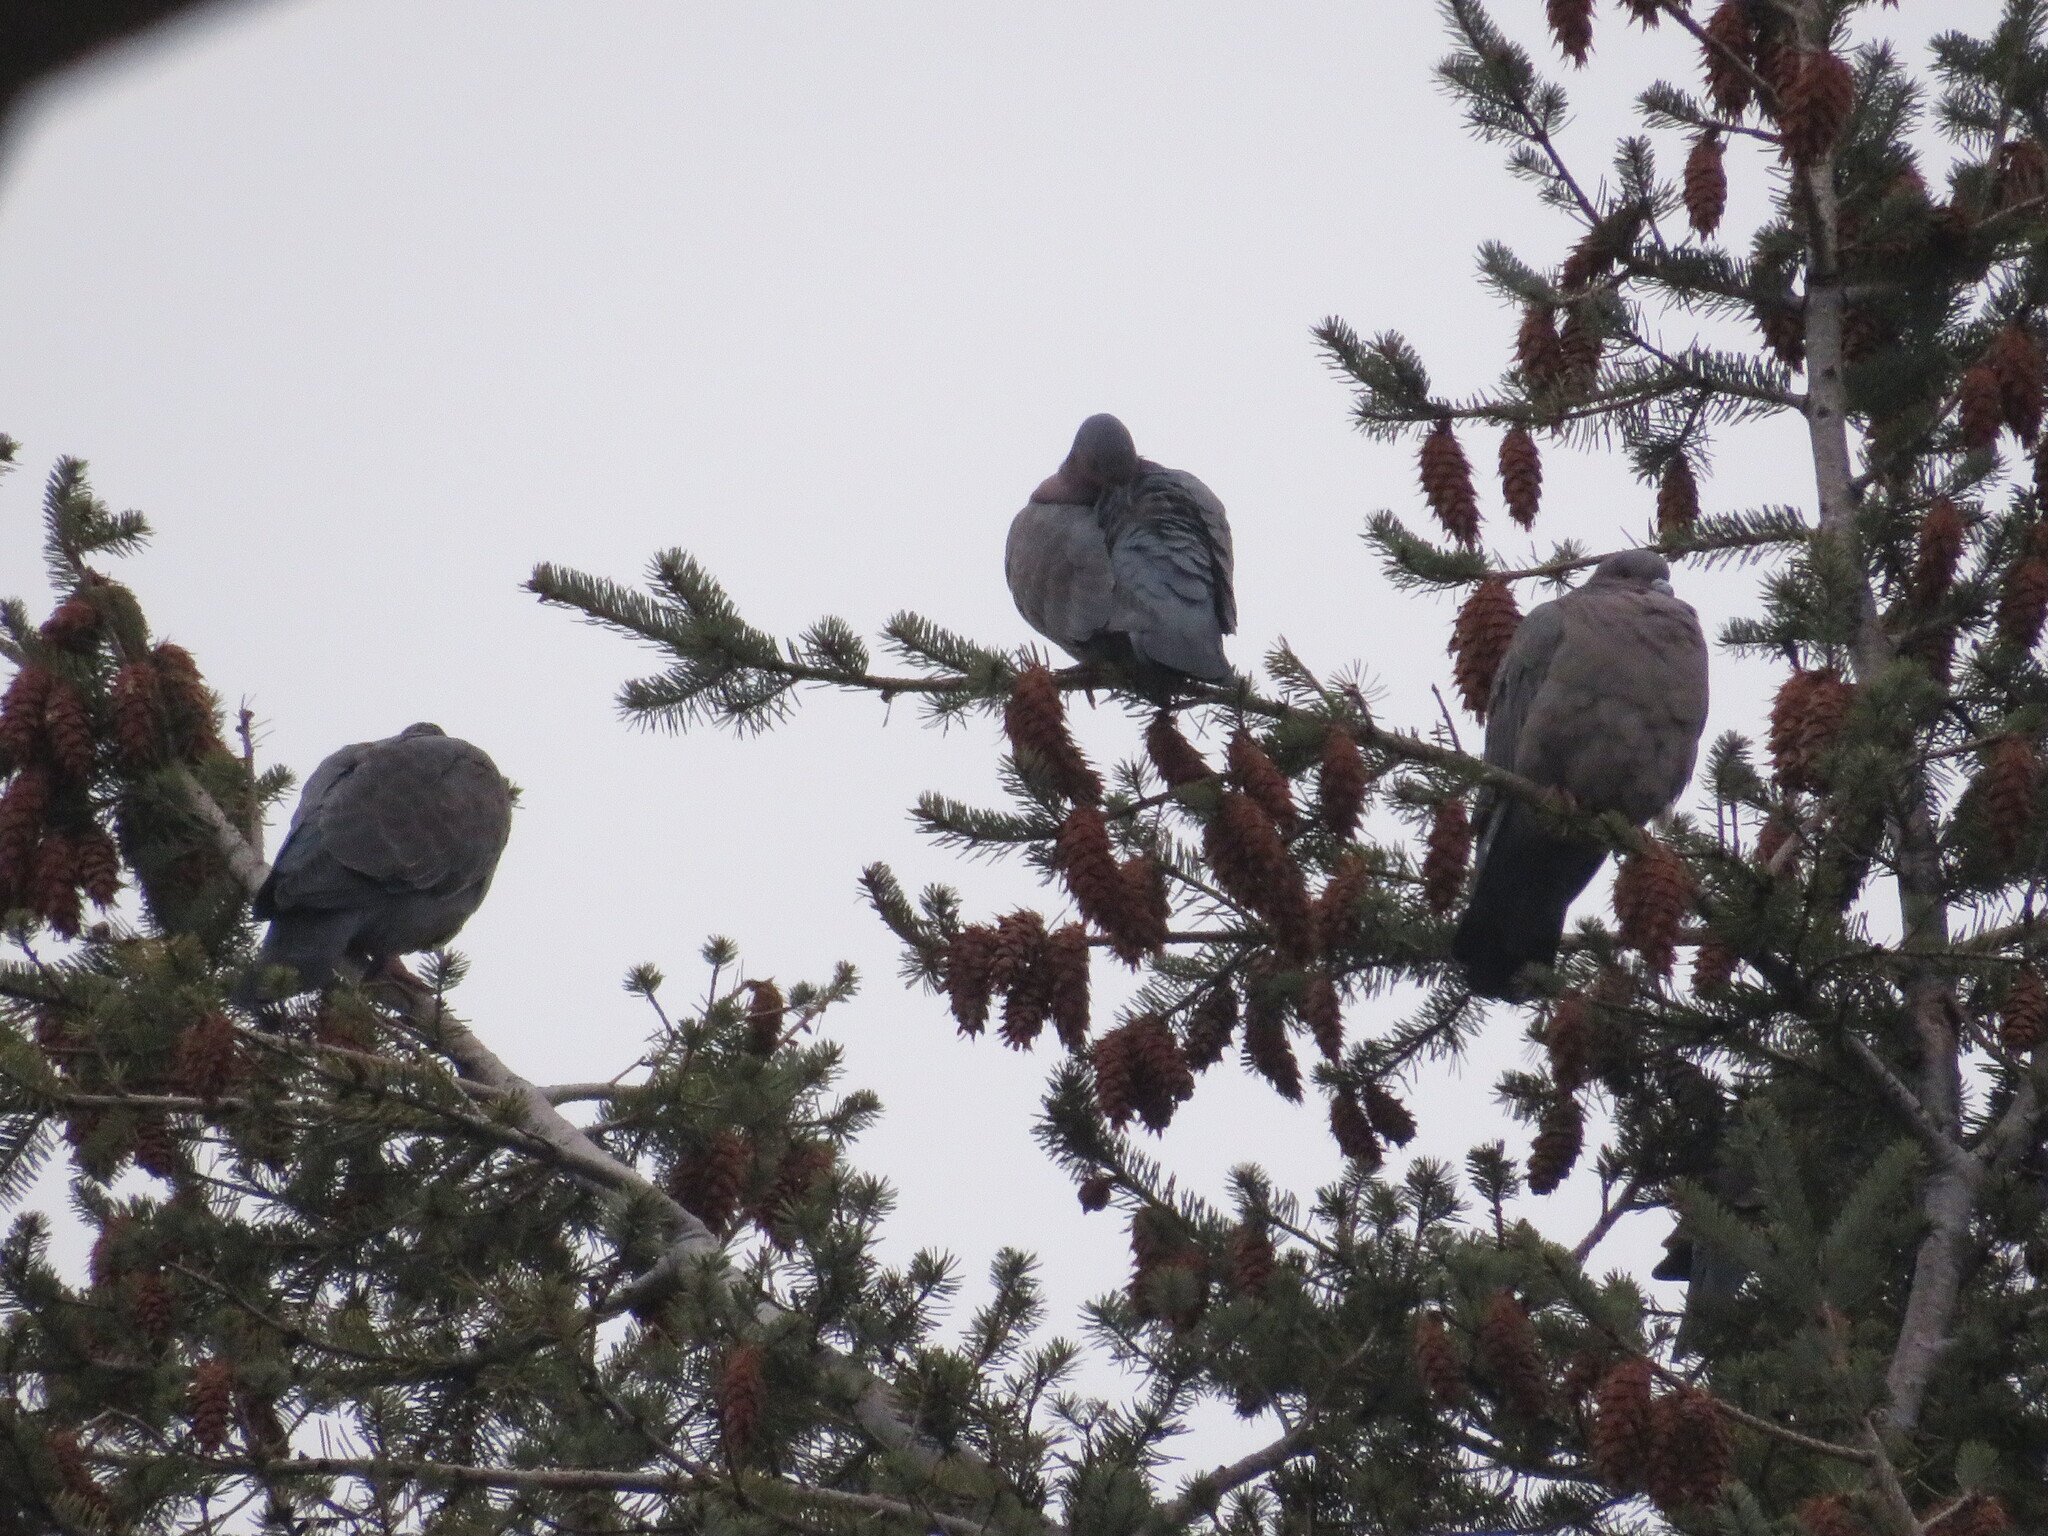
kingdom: Animalia
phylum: Chordata
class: Aves
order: Columbiformes
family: Columbidae
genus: Patagioenas
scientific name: Patagioenas picazuro
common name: Picazuro pigeon
